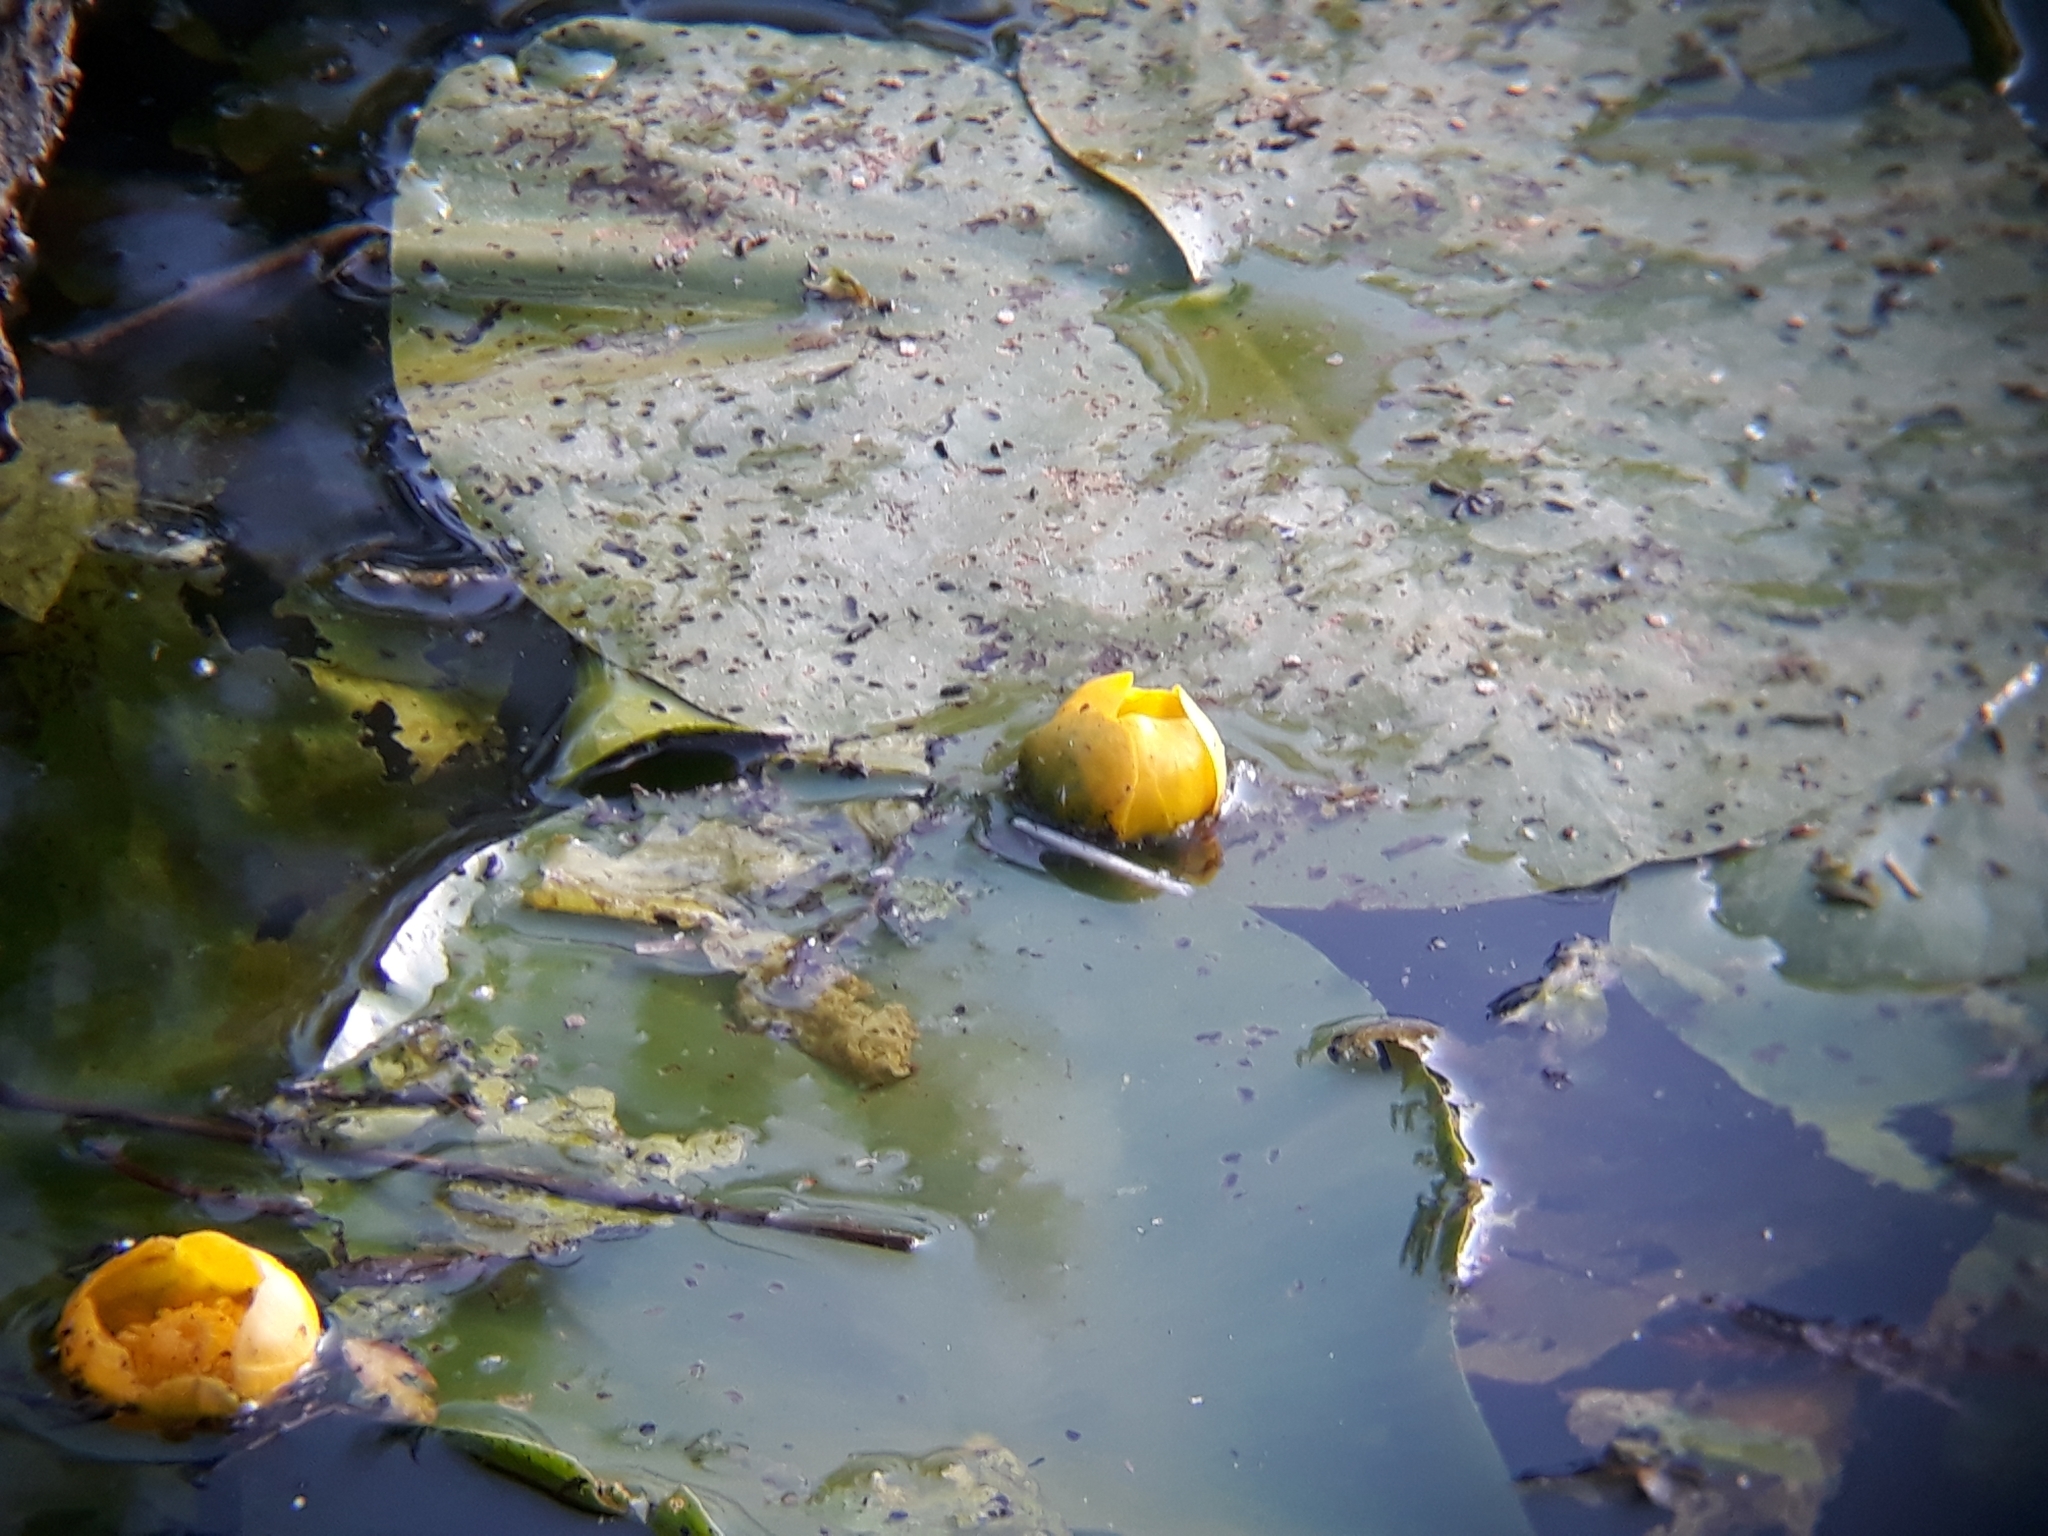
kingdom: Plantae
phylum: Tracheophyta
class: Magnoliopsida
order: Nymphaeales
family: Nymphaeaceae
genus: Nuphar
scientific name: Nuphar lutea
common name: Yellow water-lily
